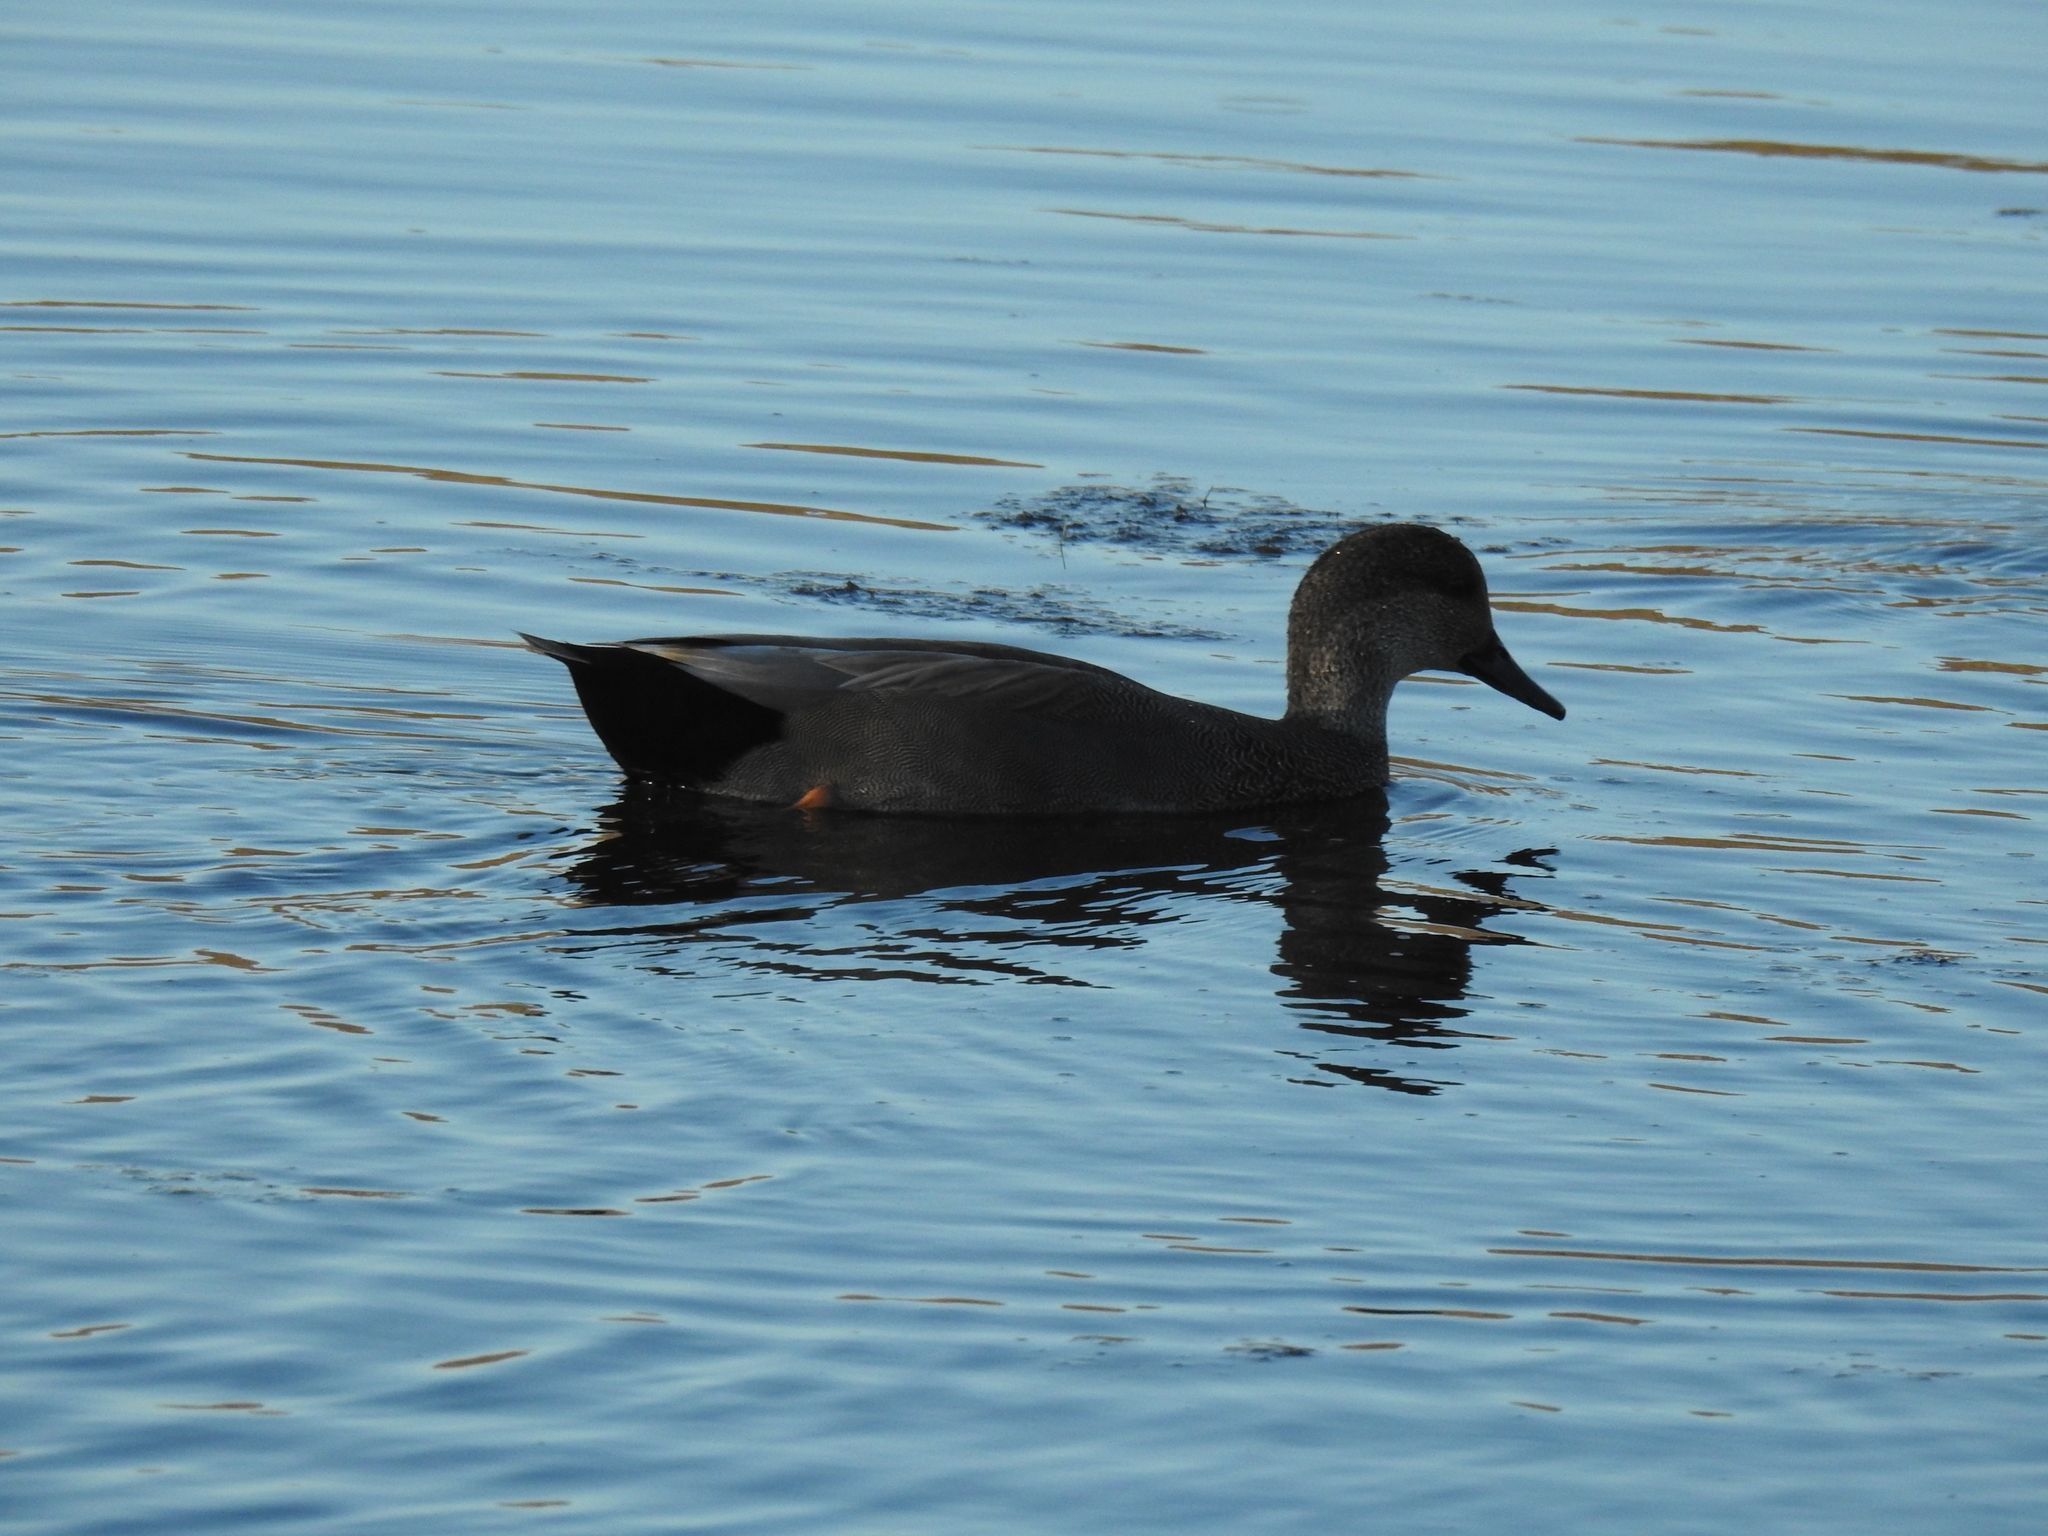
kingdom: Animalia
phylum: Chordata
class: Aves
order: Anseriformes
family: Anatidae
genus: Mareca
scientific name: Mareca strepera
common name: Gadwall
